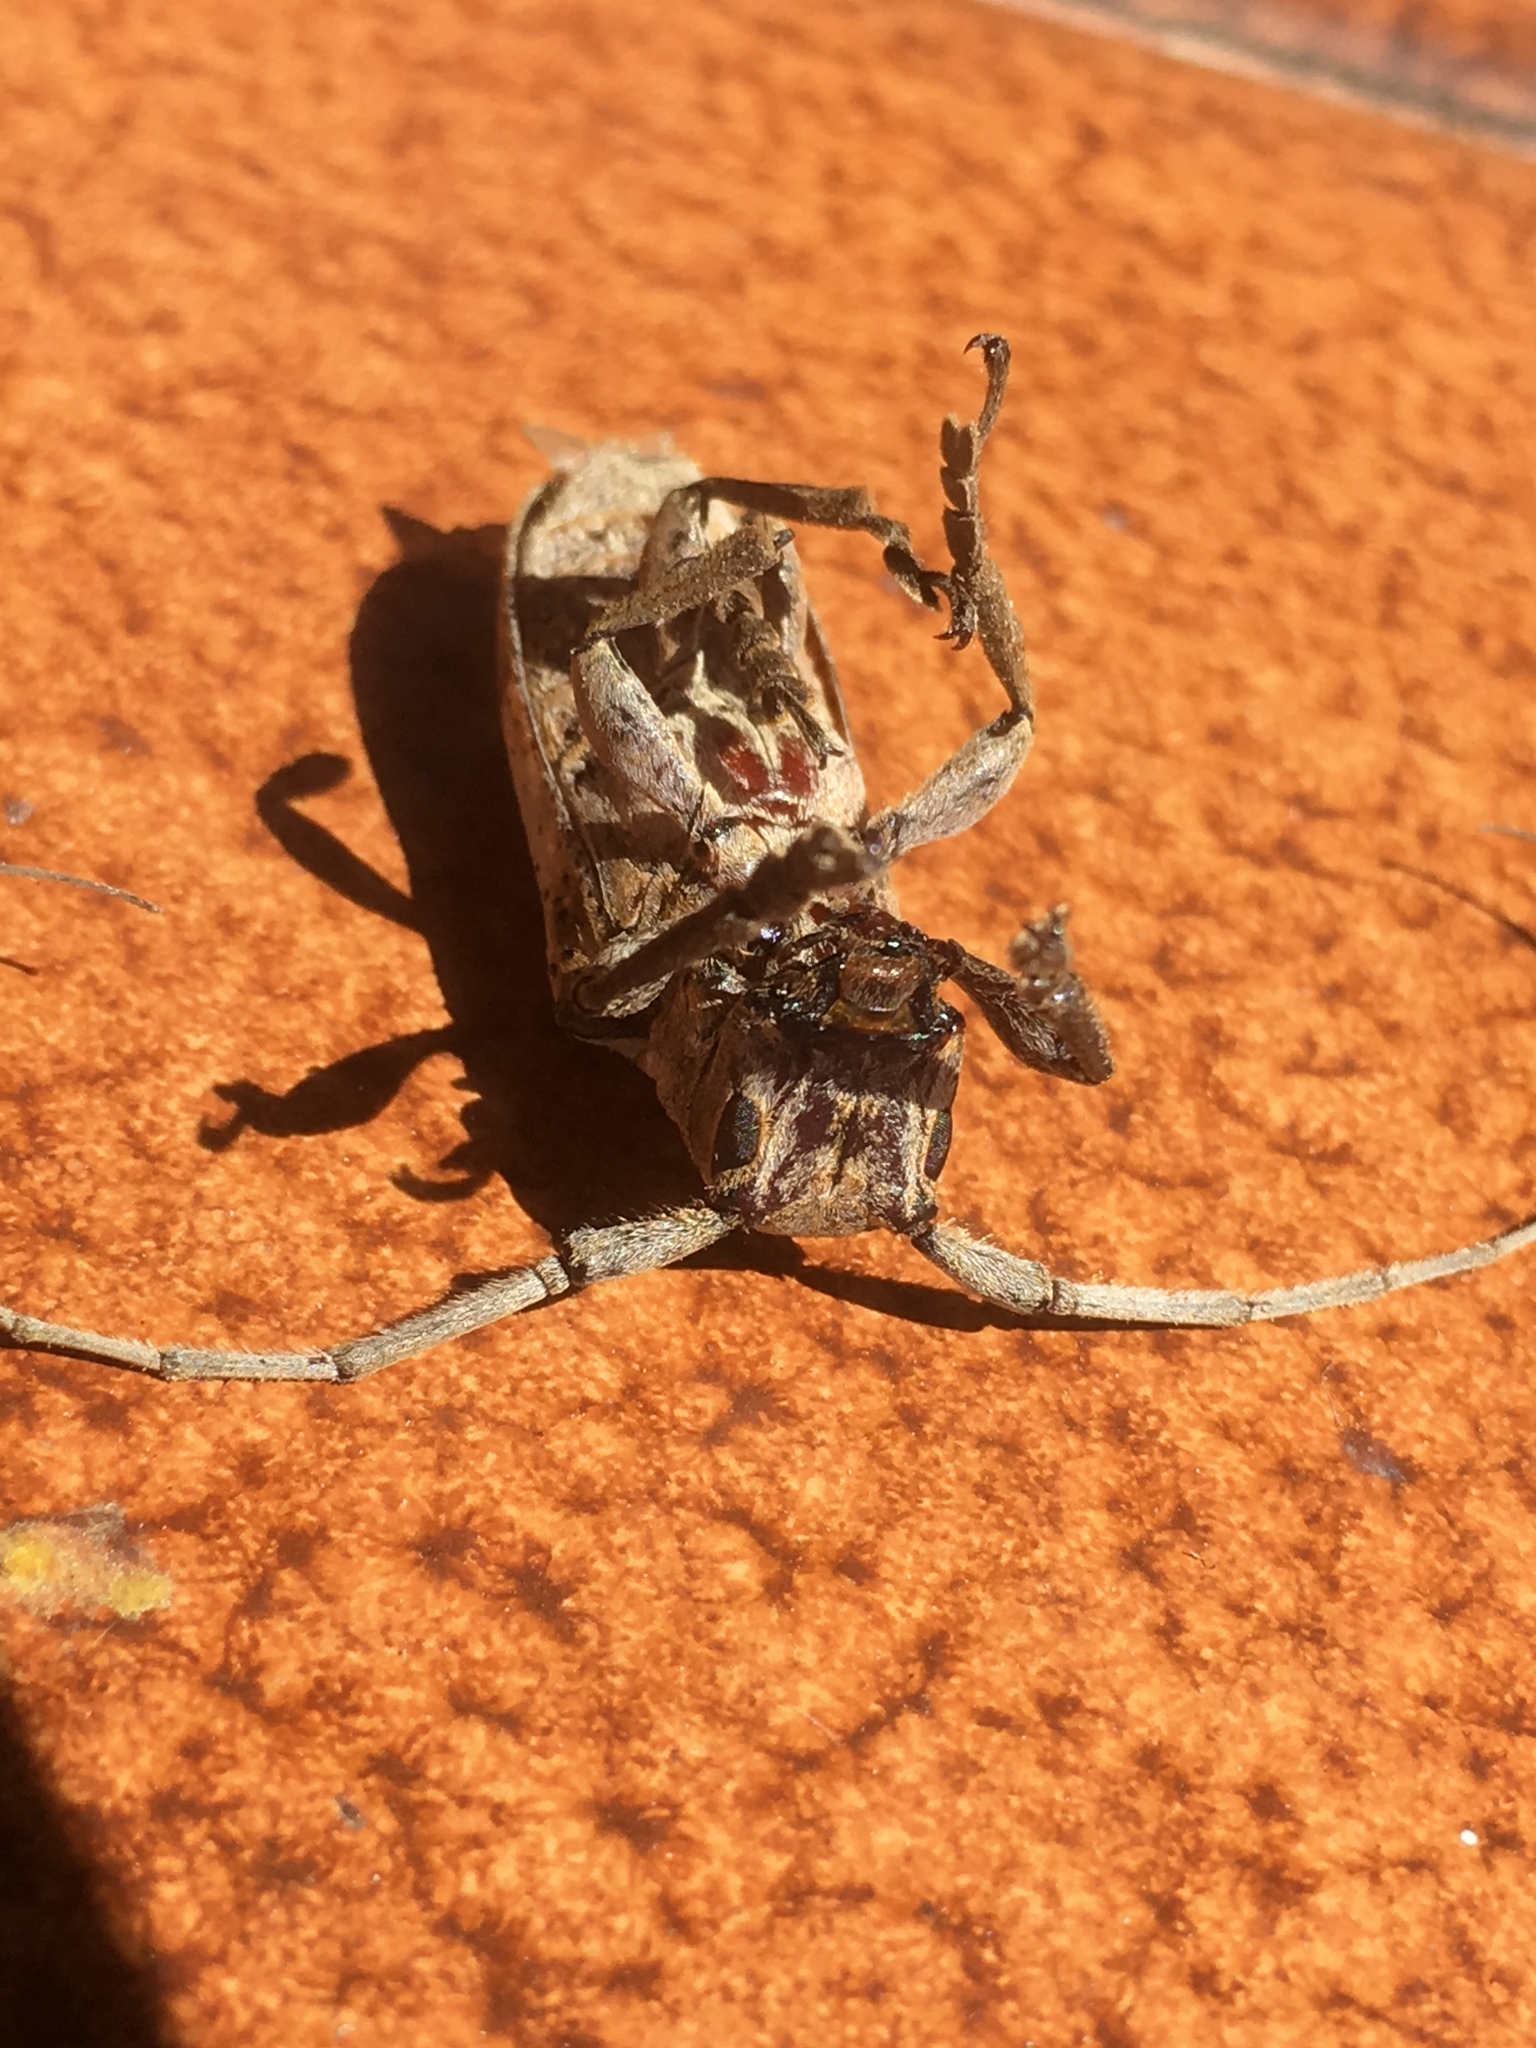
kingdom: Animalia
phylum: Arthropoda
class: Insecta
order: Coleoptera
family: Cerambycidae
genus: Oncideres
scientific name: Oncideres putator
